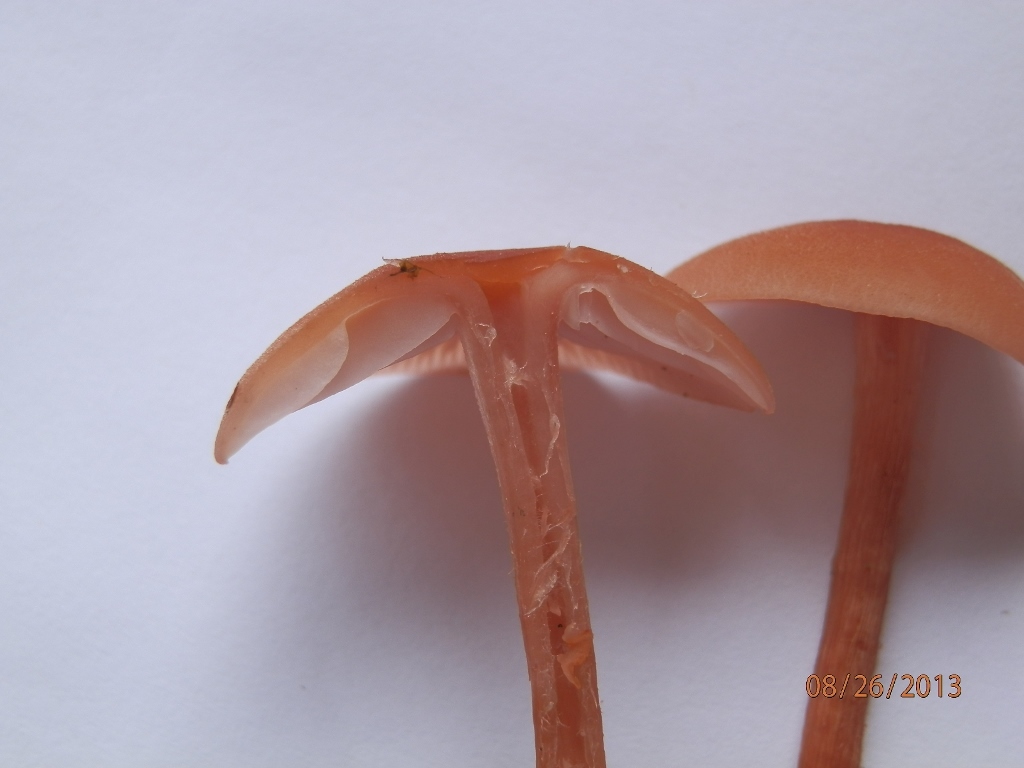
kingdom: Fungi
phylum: Basidiomycota
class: Agaricomycetes
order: Agaricales
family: Hydnangiaceae
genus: Laccaria
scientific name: Laccaria bicolor
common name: Bicoloured deceiver
